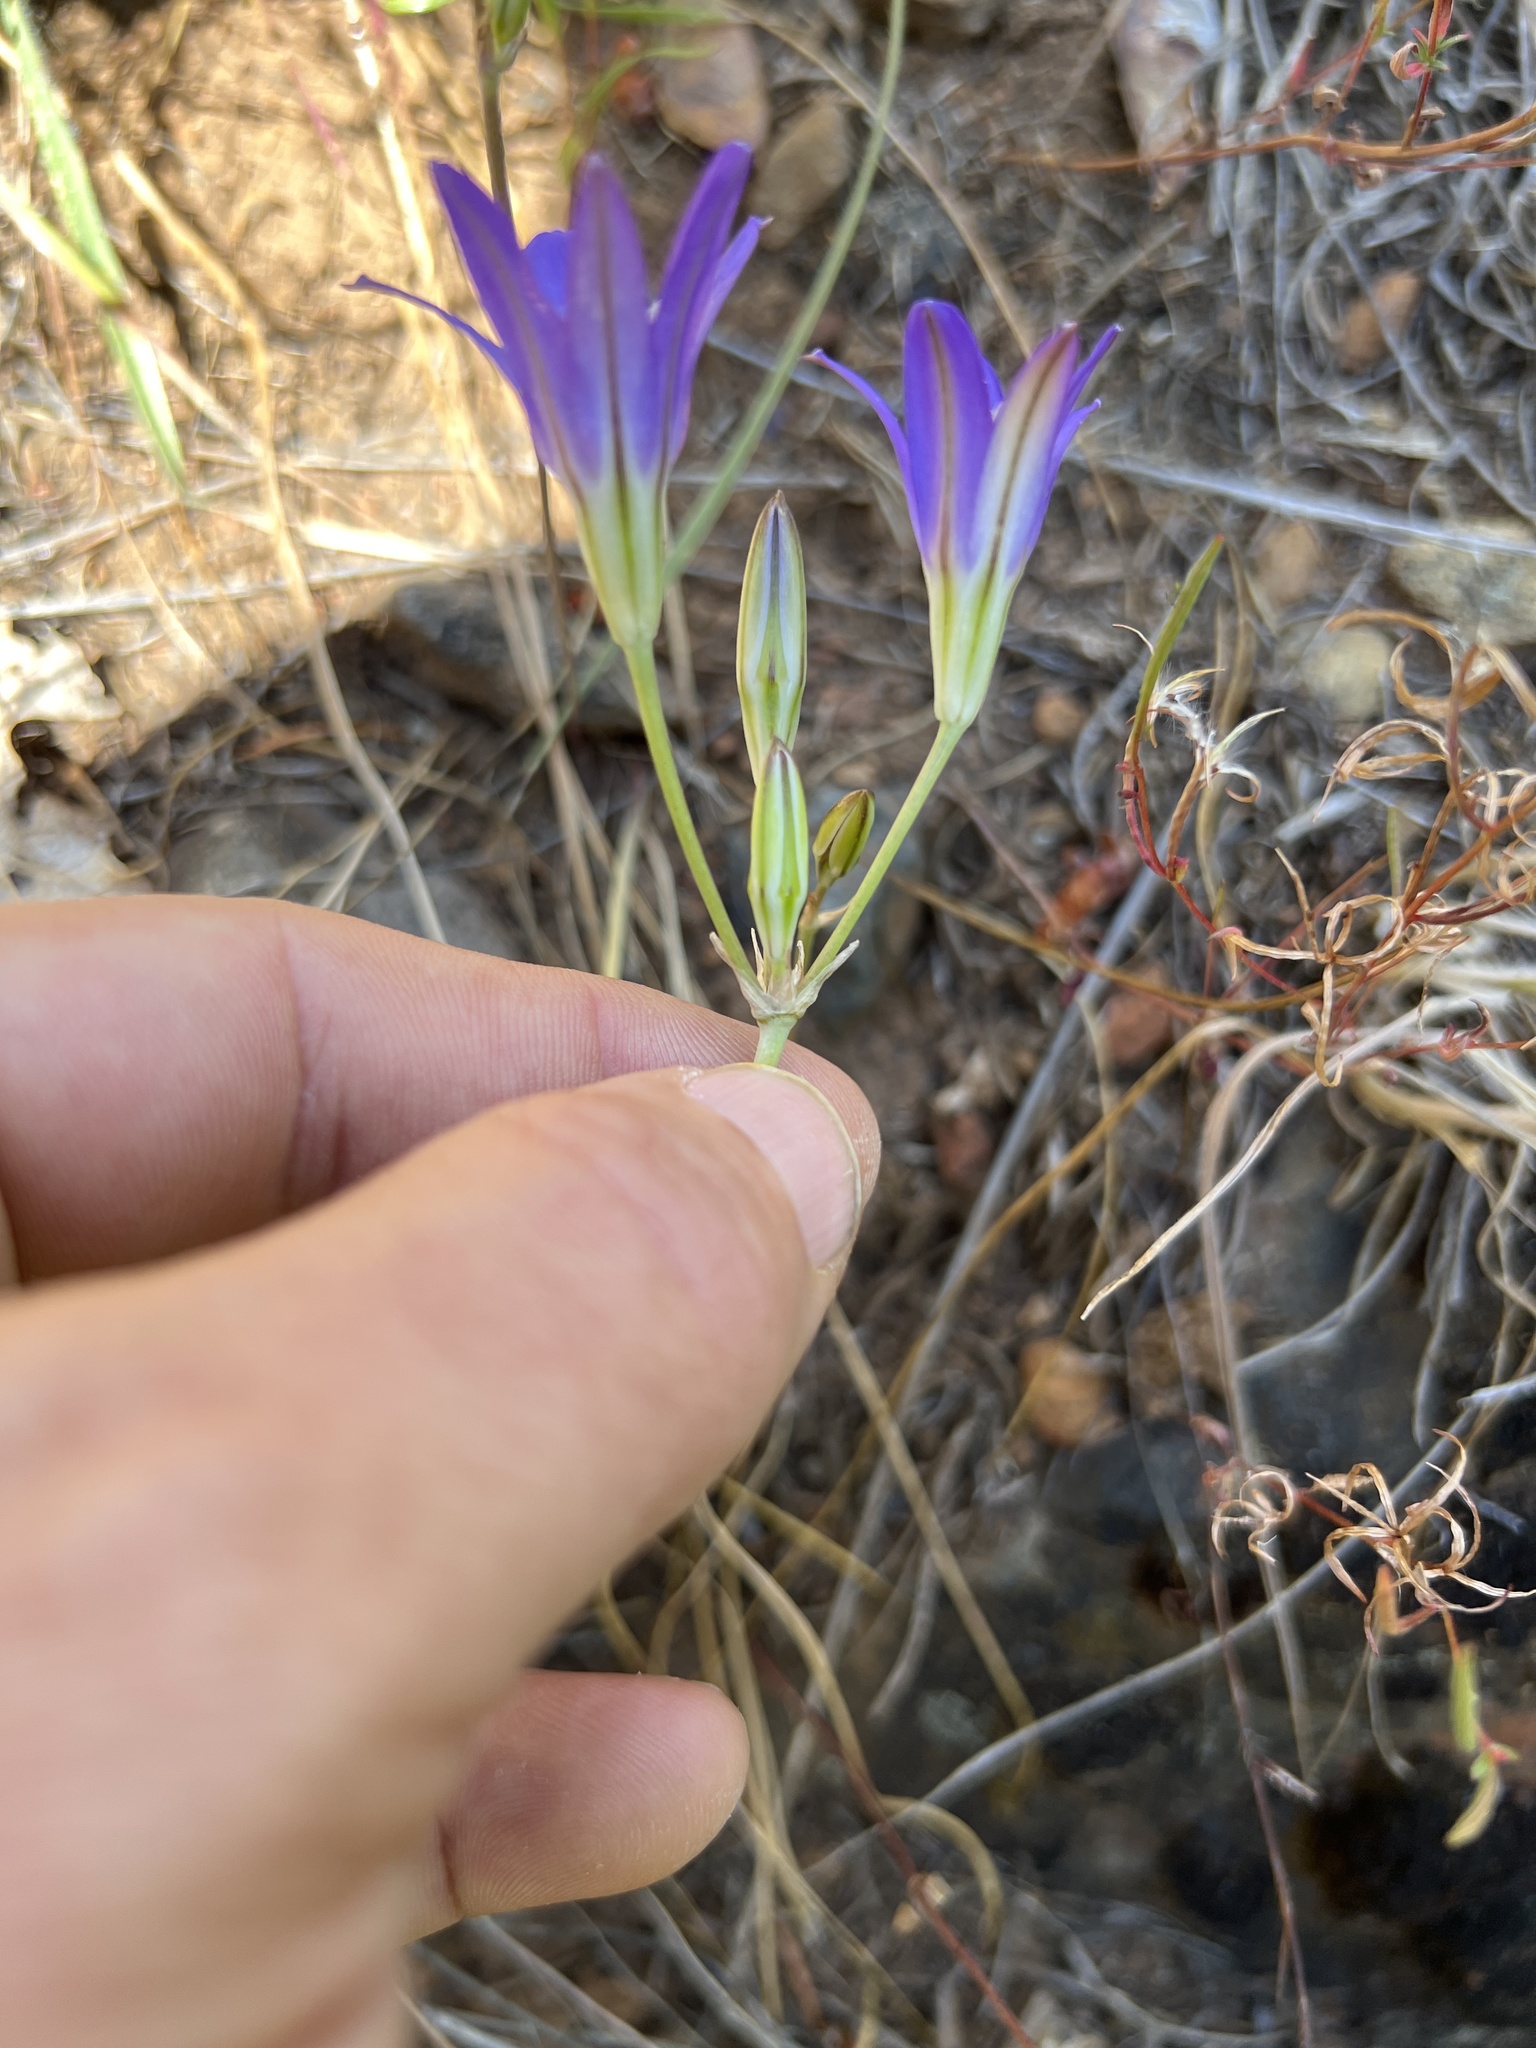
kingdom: Plantae
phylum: Tracheophyta
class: Liliopsida
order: Asparagales
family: Asparagaceae
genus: Brodiaea
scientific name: Brodiaea elegans
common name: Elegant cluster-lily
